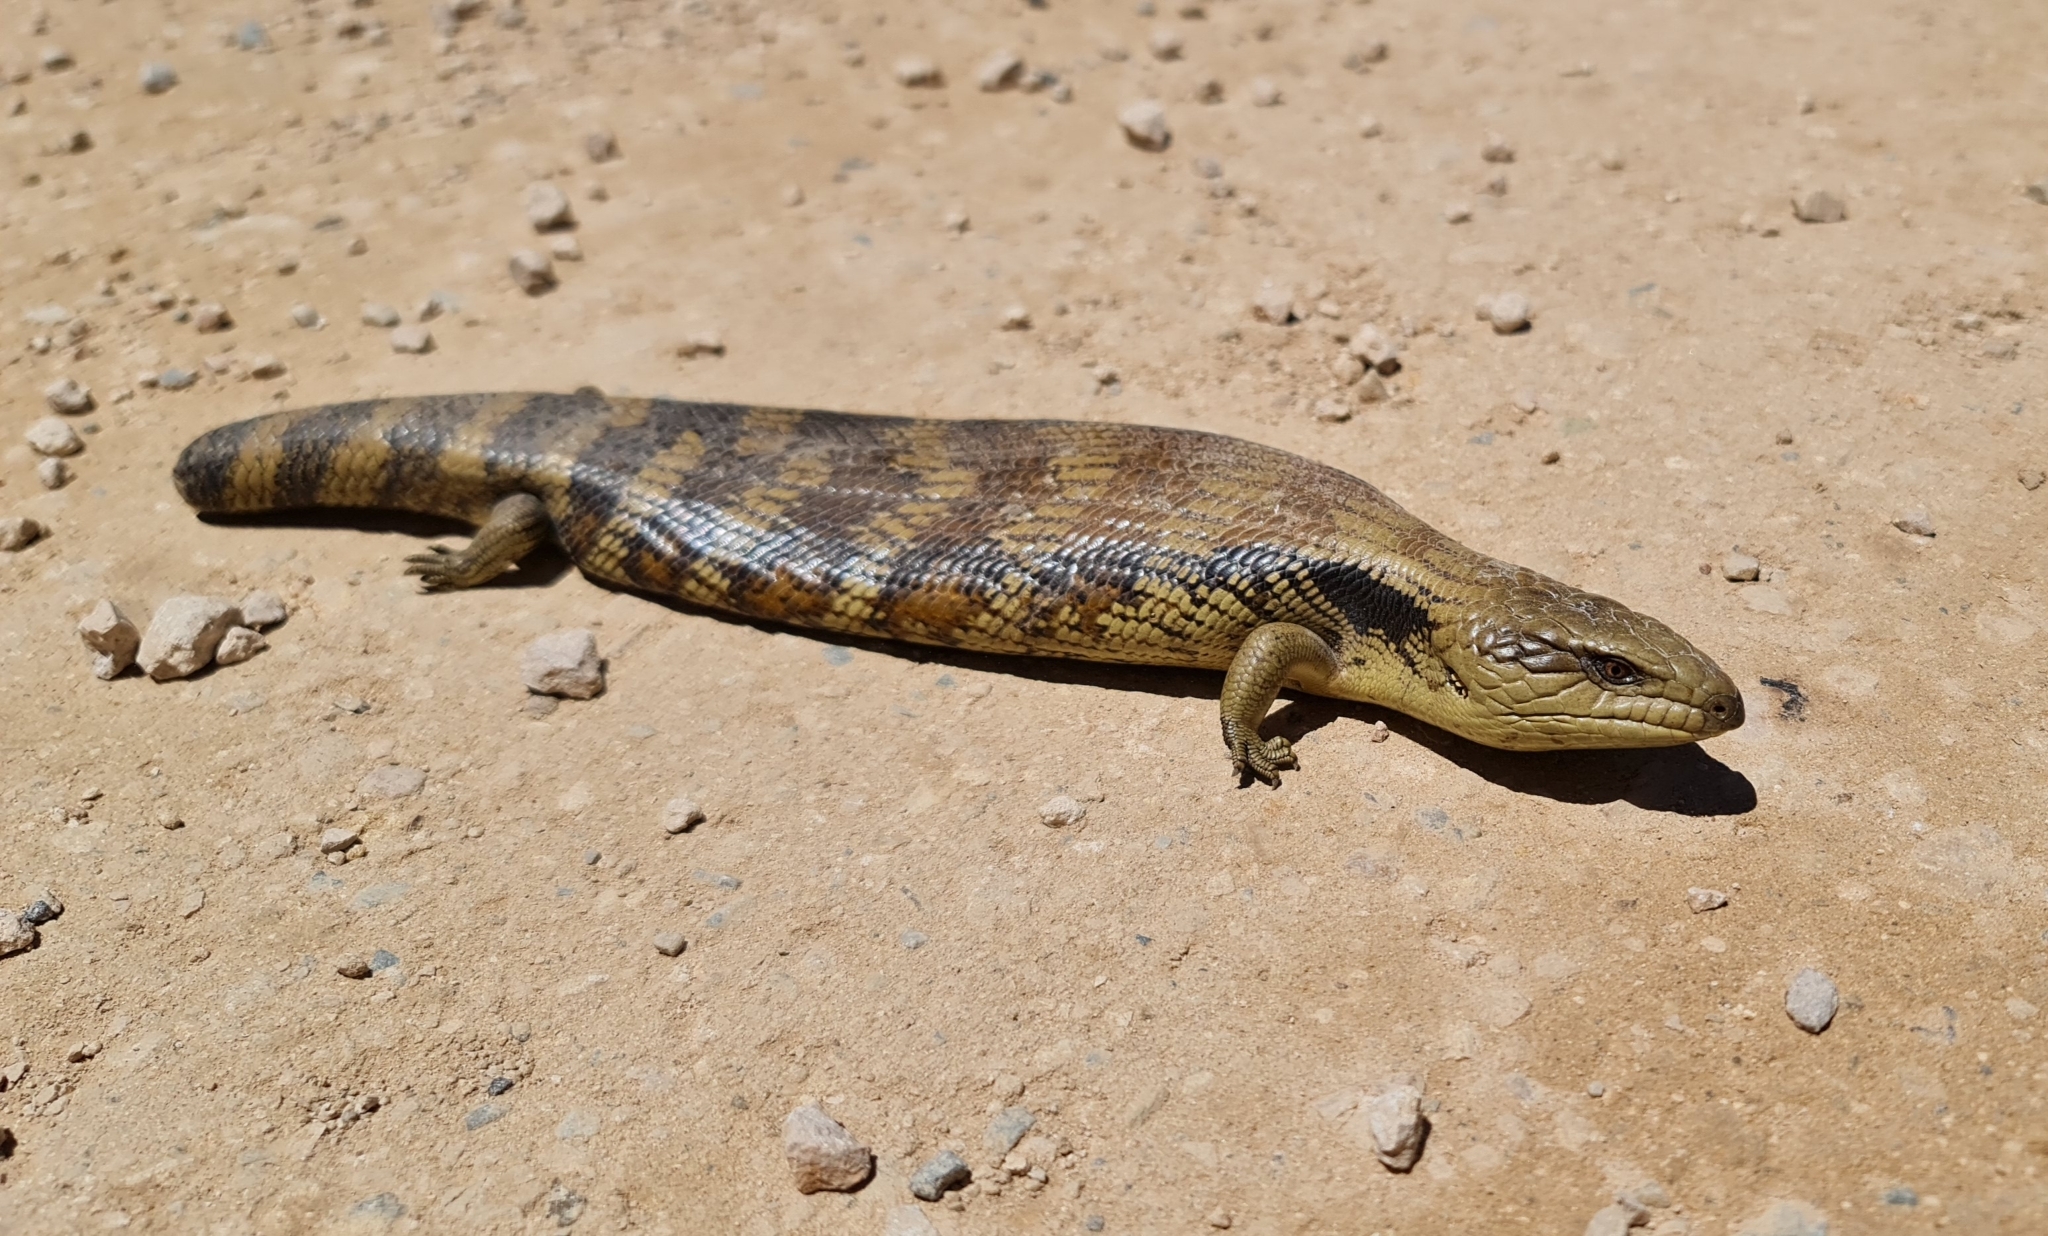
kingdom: Animalia
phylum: Chordata
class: Squamata
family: Scincidae
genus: Tiliqua
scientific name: Tiliqua scincoides
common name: Common bluetongue
